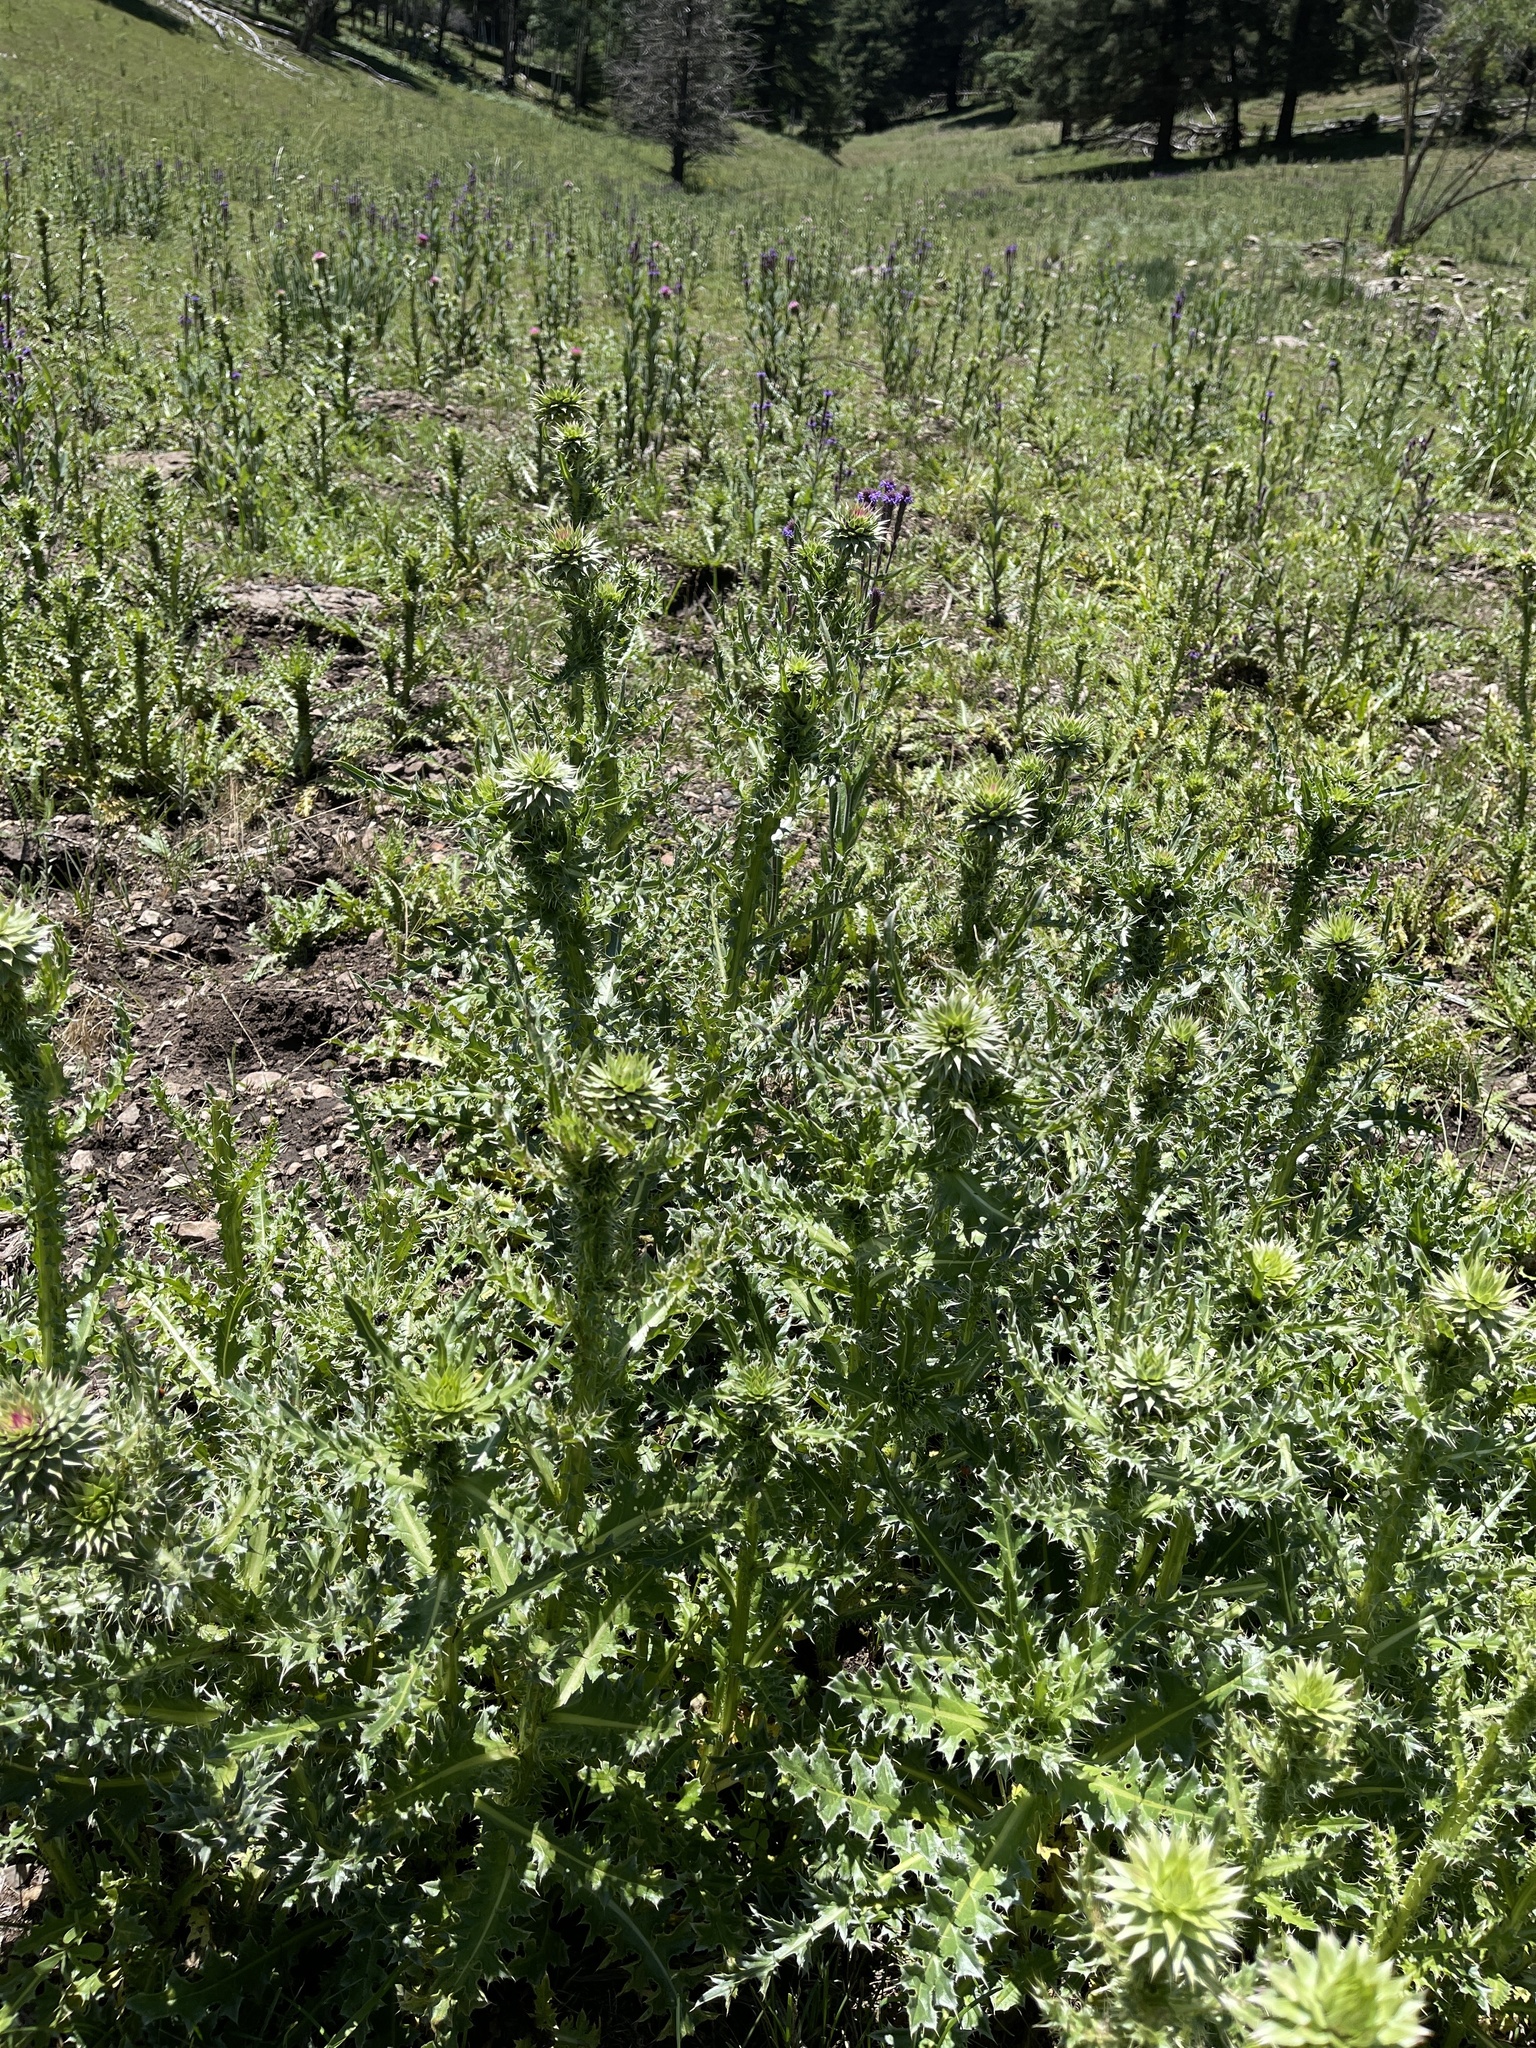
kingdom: Plantae
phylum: Tracheophyta
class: Magnoliopsida
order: Asterales
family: Asteraceae
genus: Carduus
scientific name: Carduus nutans
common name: Musk thistle
